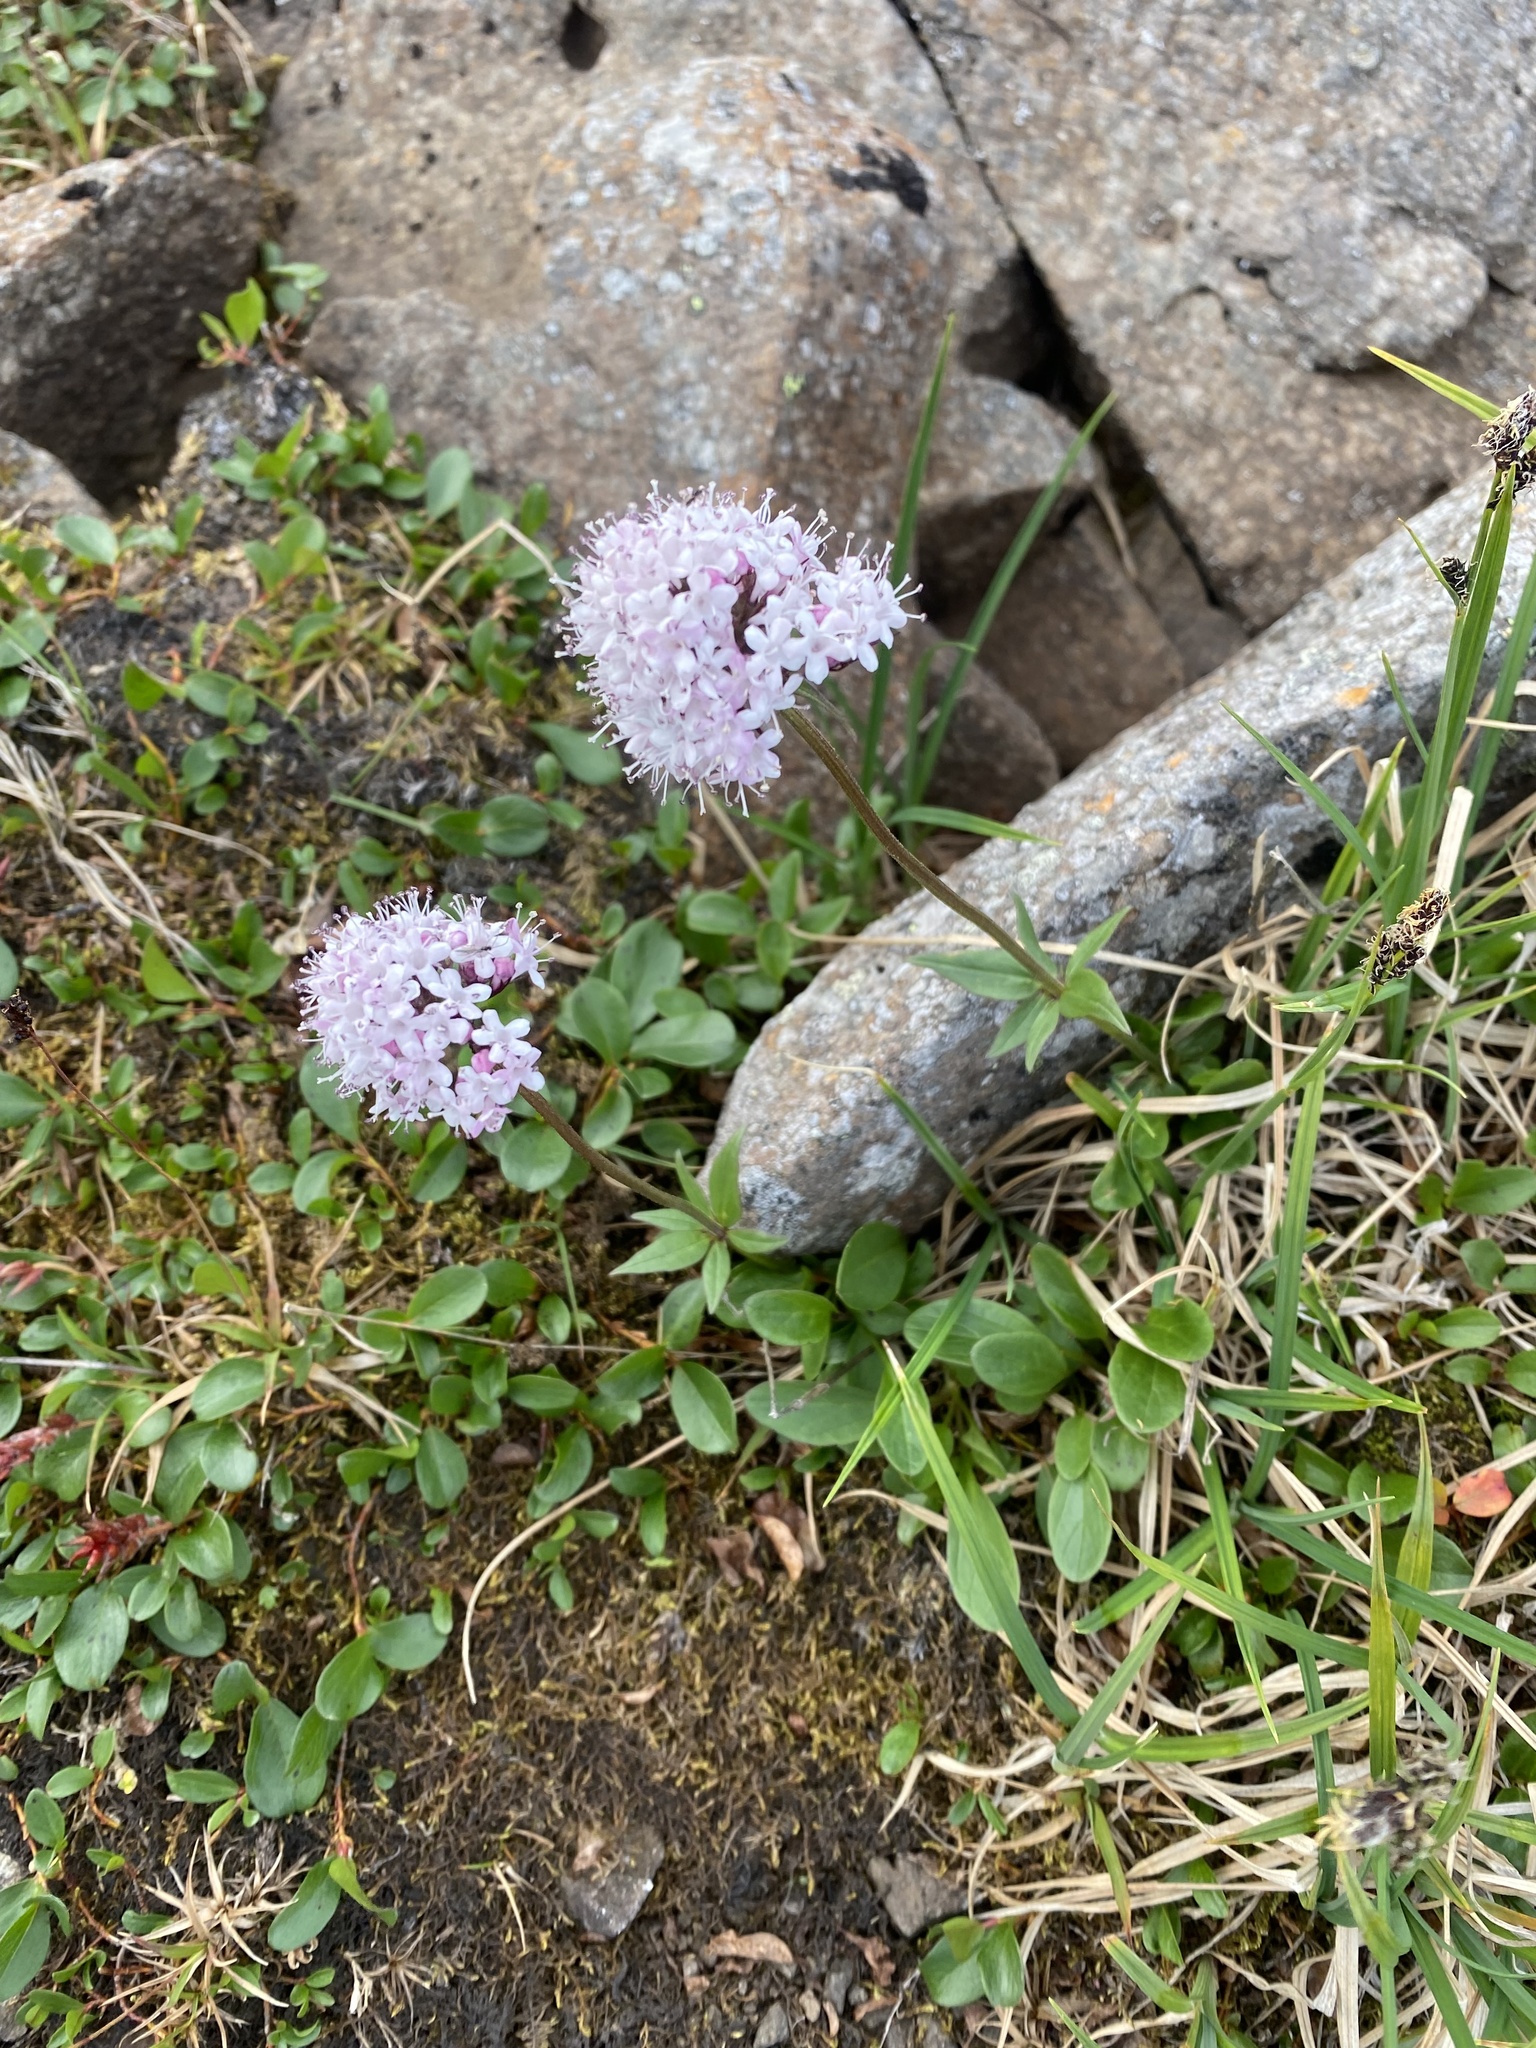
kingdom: Plantae
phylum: Tracheophyta
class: Magnoliopsida
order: Dipsacales
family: Caprifoliaceae
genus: Valeriana
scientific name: Valeriana capitata
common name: Capitate valerian
